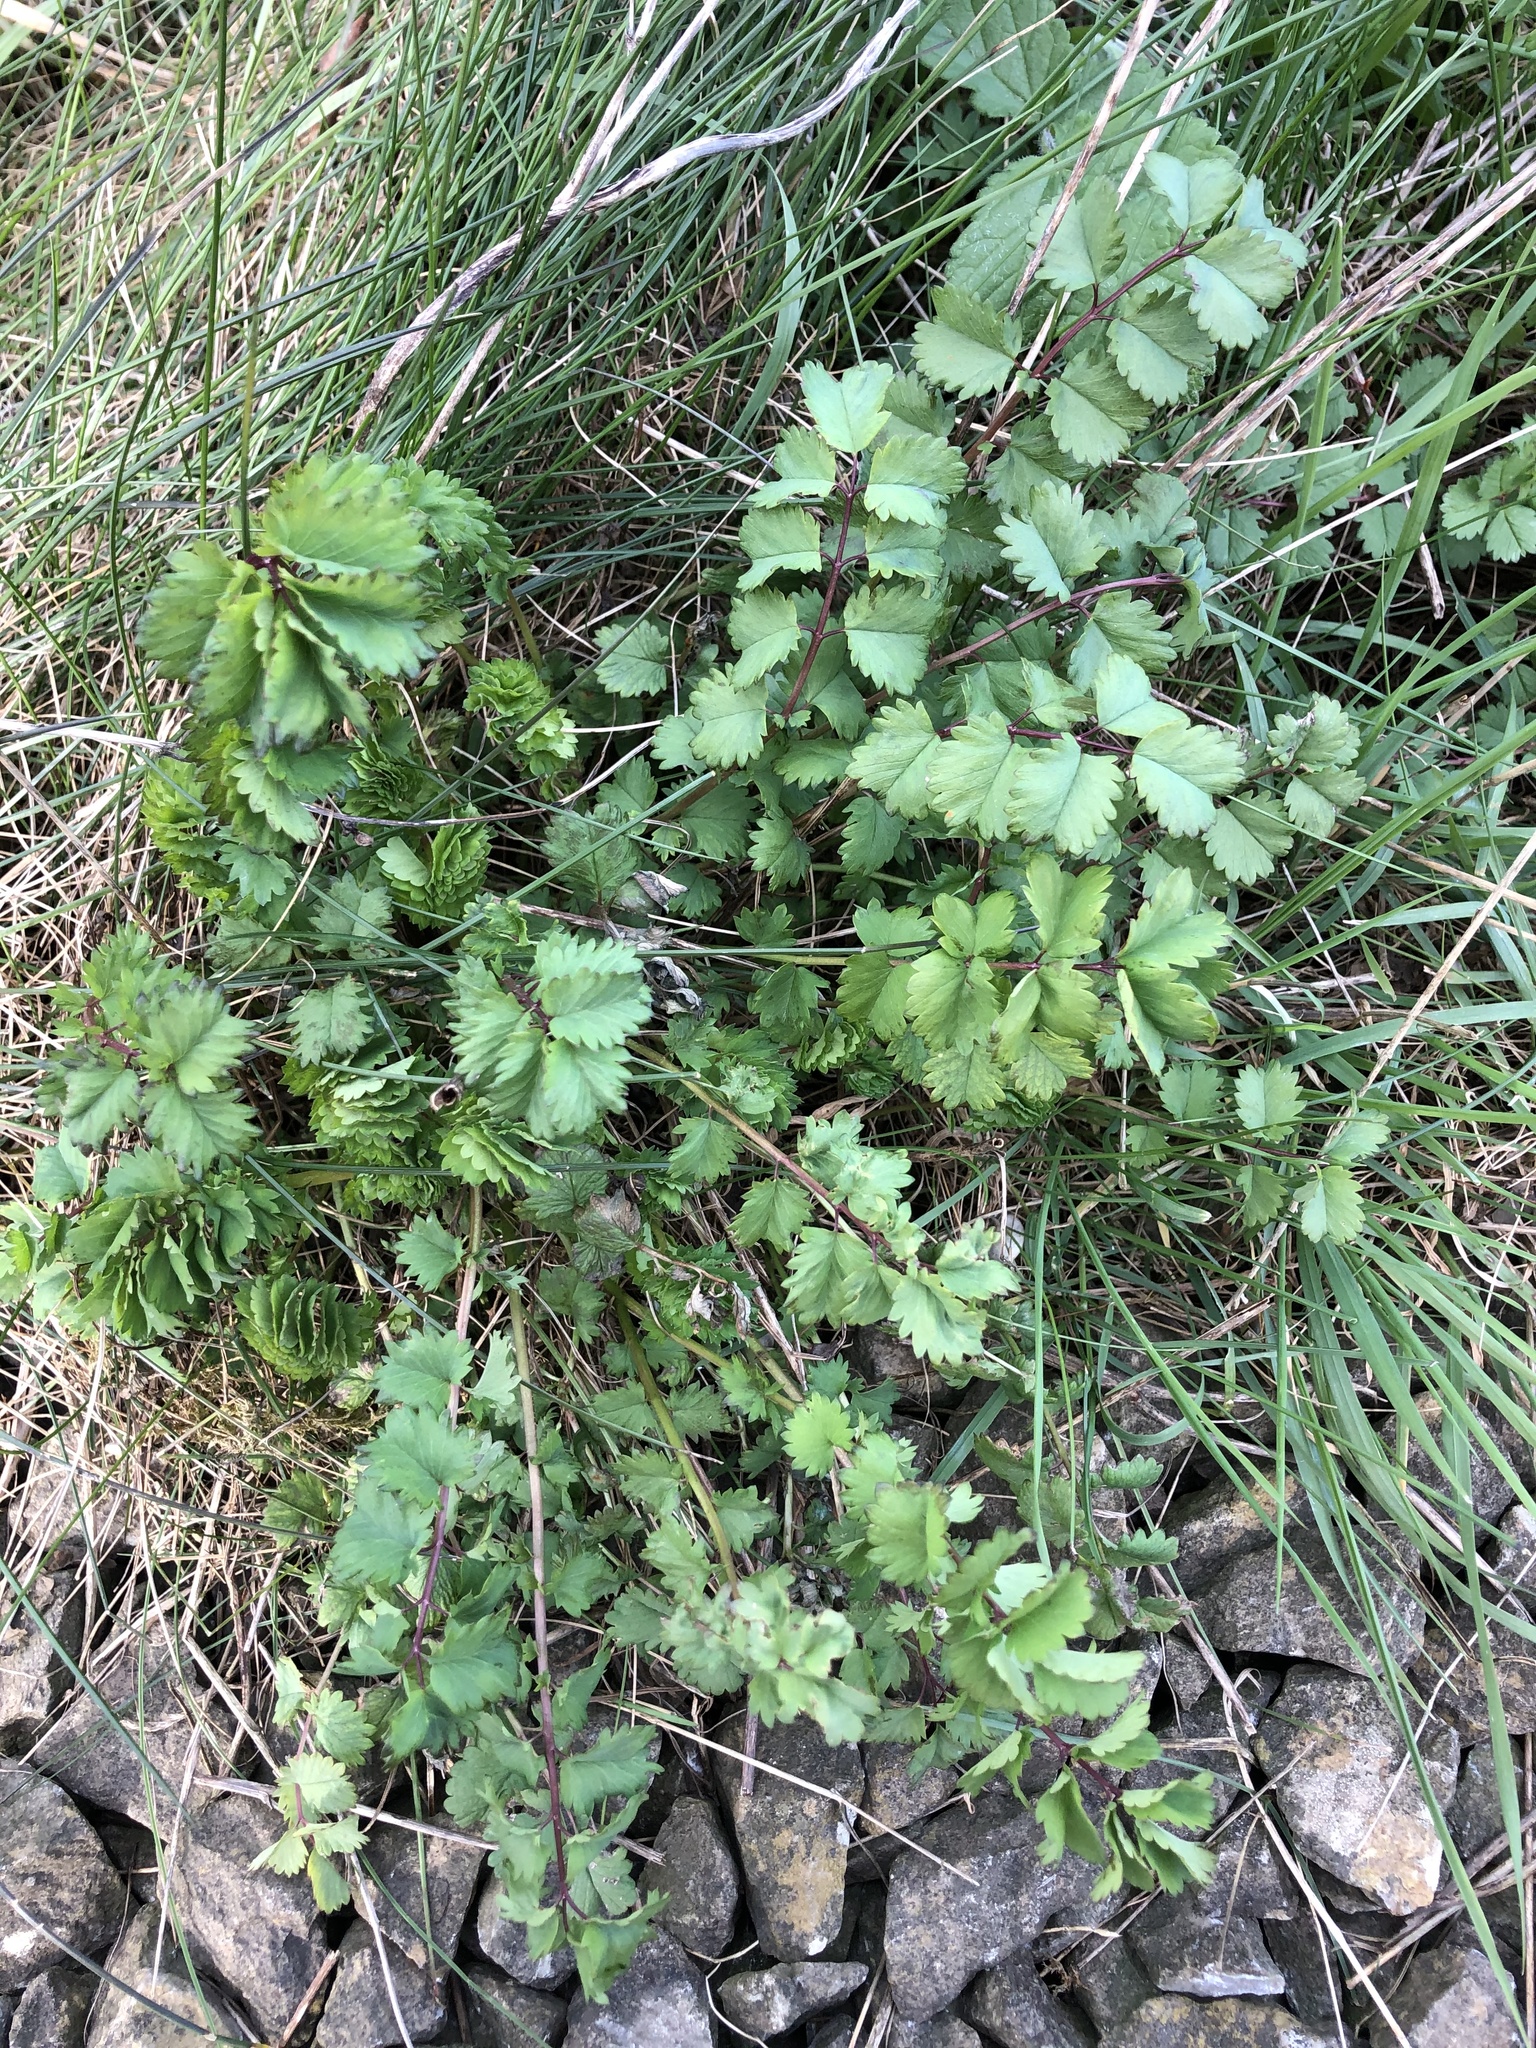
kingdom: Plantae
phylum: Tracheophyta
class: Magnoliopsida
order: Rosales
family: Rosaceae
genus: Poterium
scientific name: Poterium sanguisorba
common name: Salad burnet
